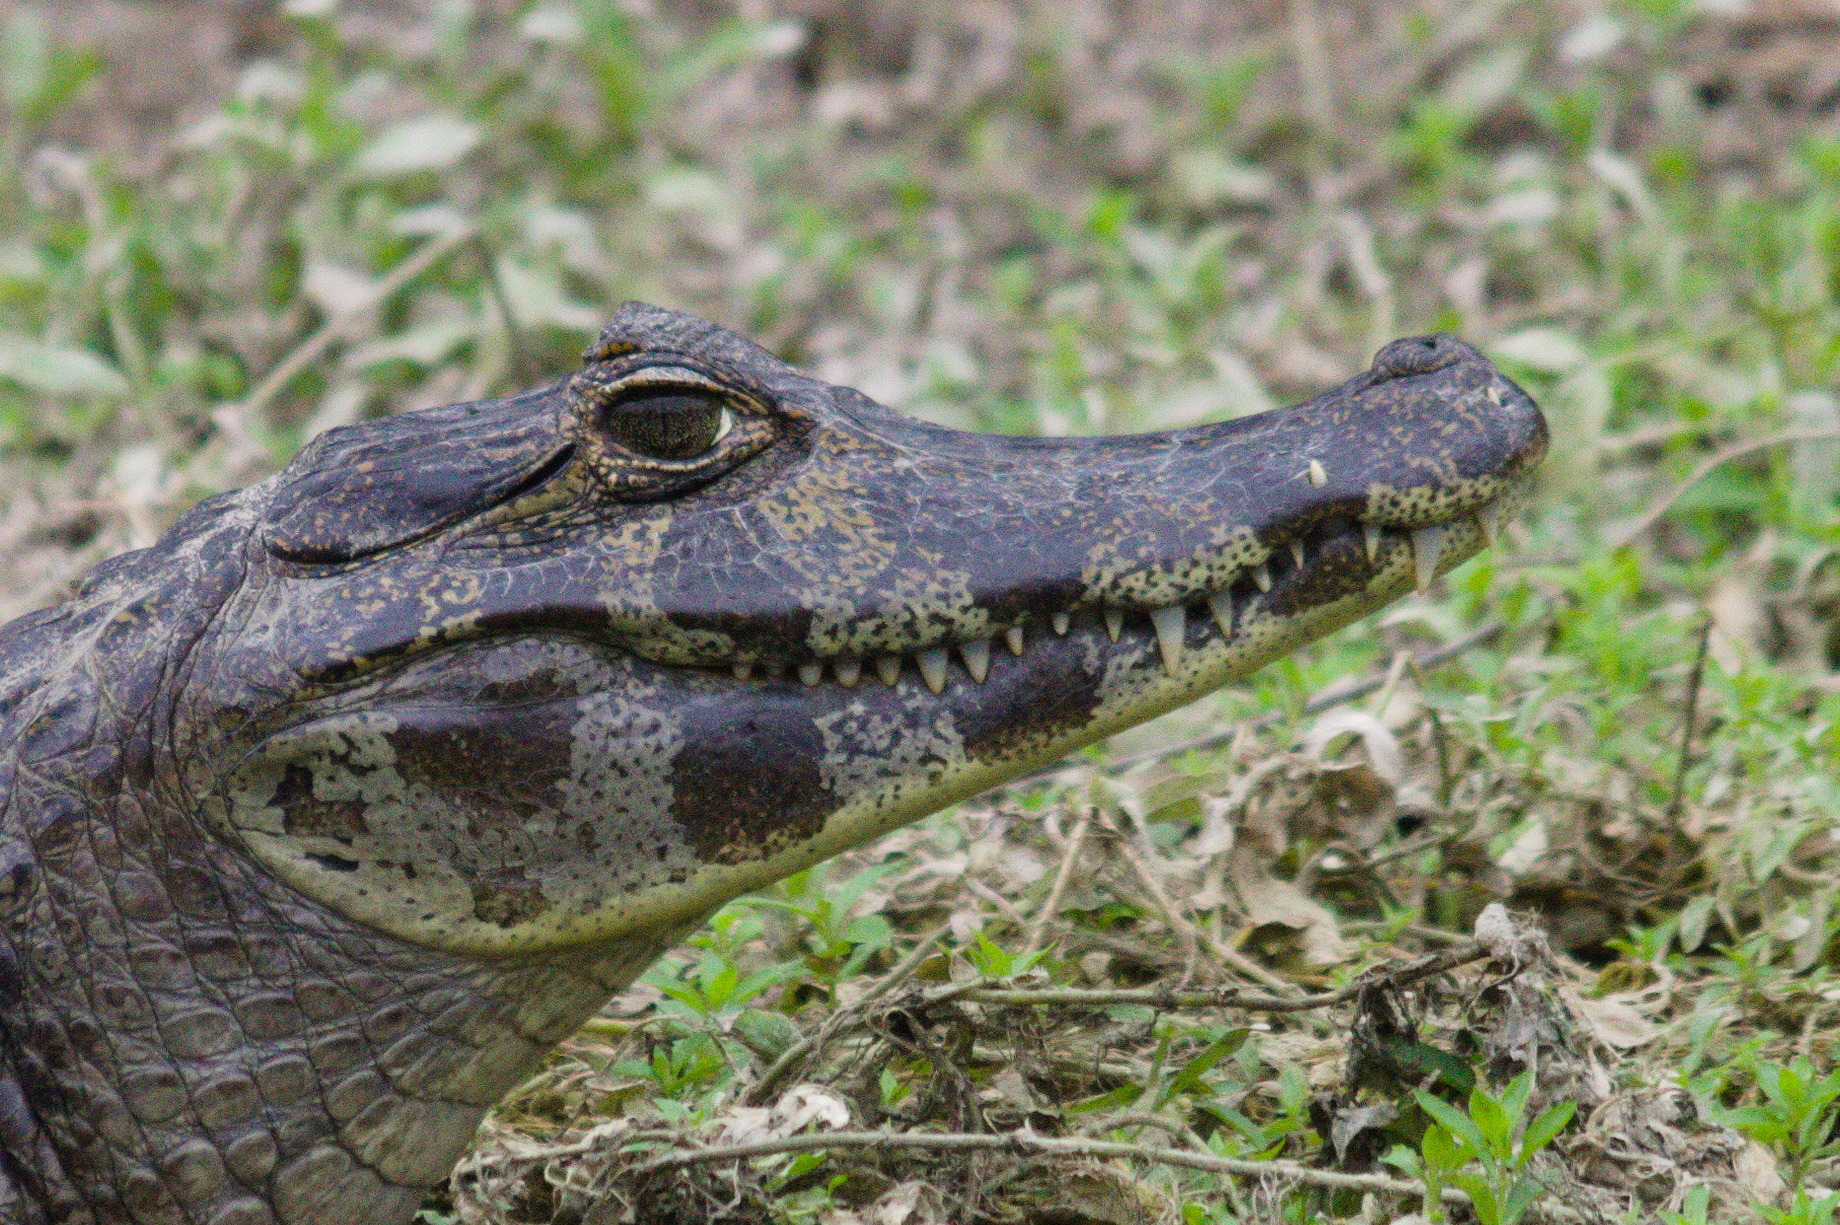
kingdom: Animalia
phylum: Chordata
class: Crocodylia
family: Alligatoridae
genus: Caiman
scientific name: Caiman yacare
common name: Yacare caiman
